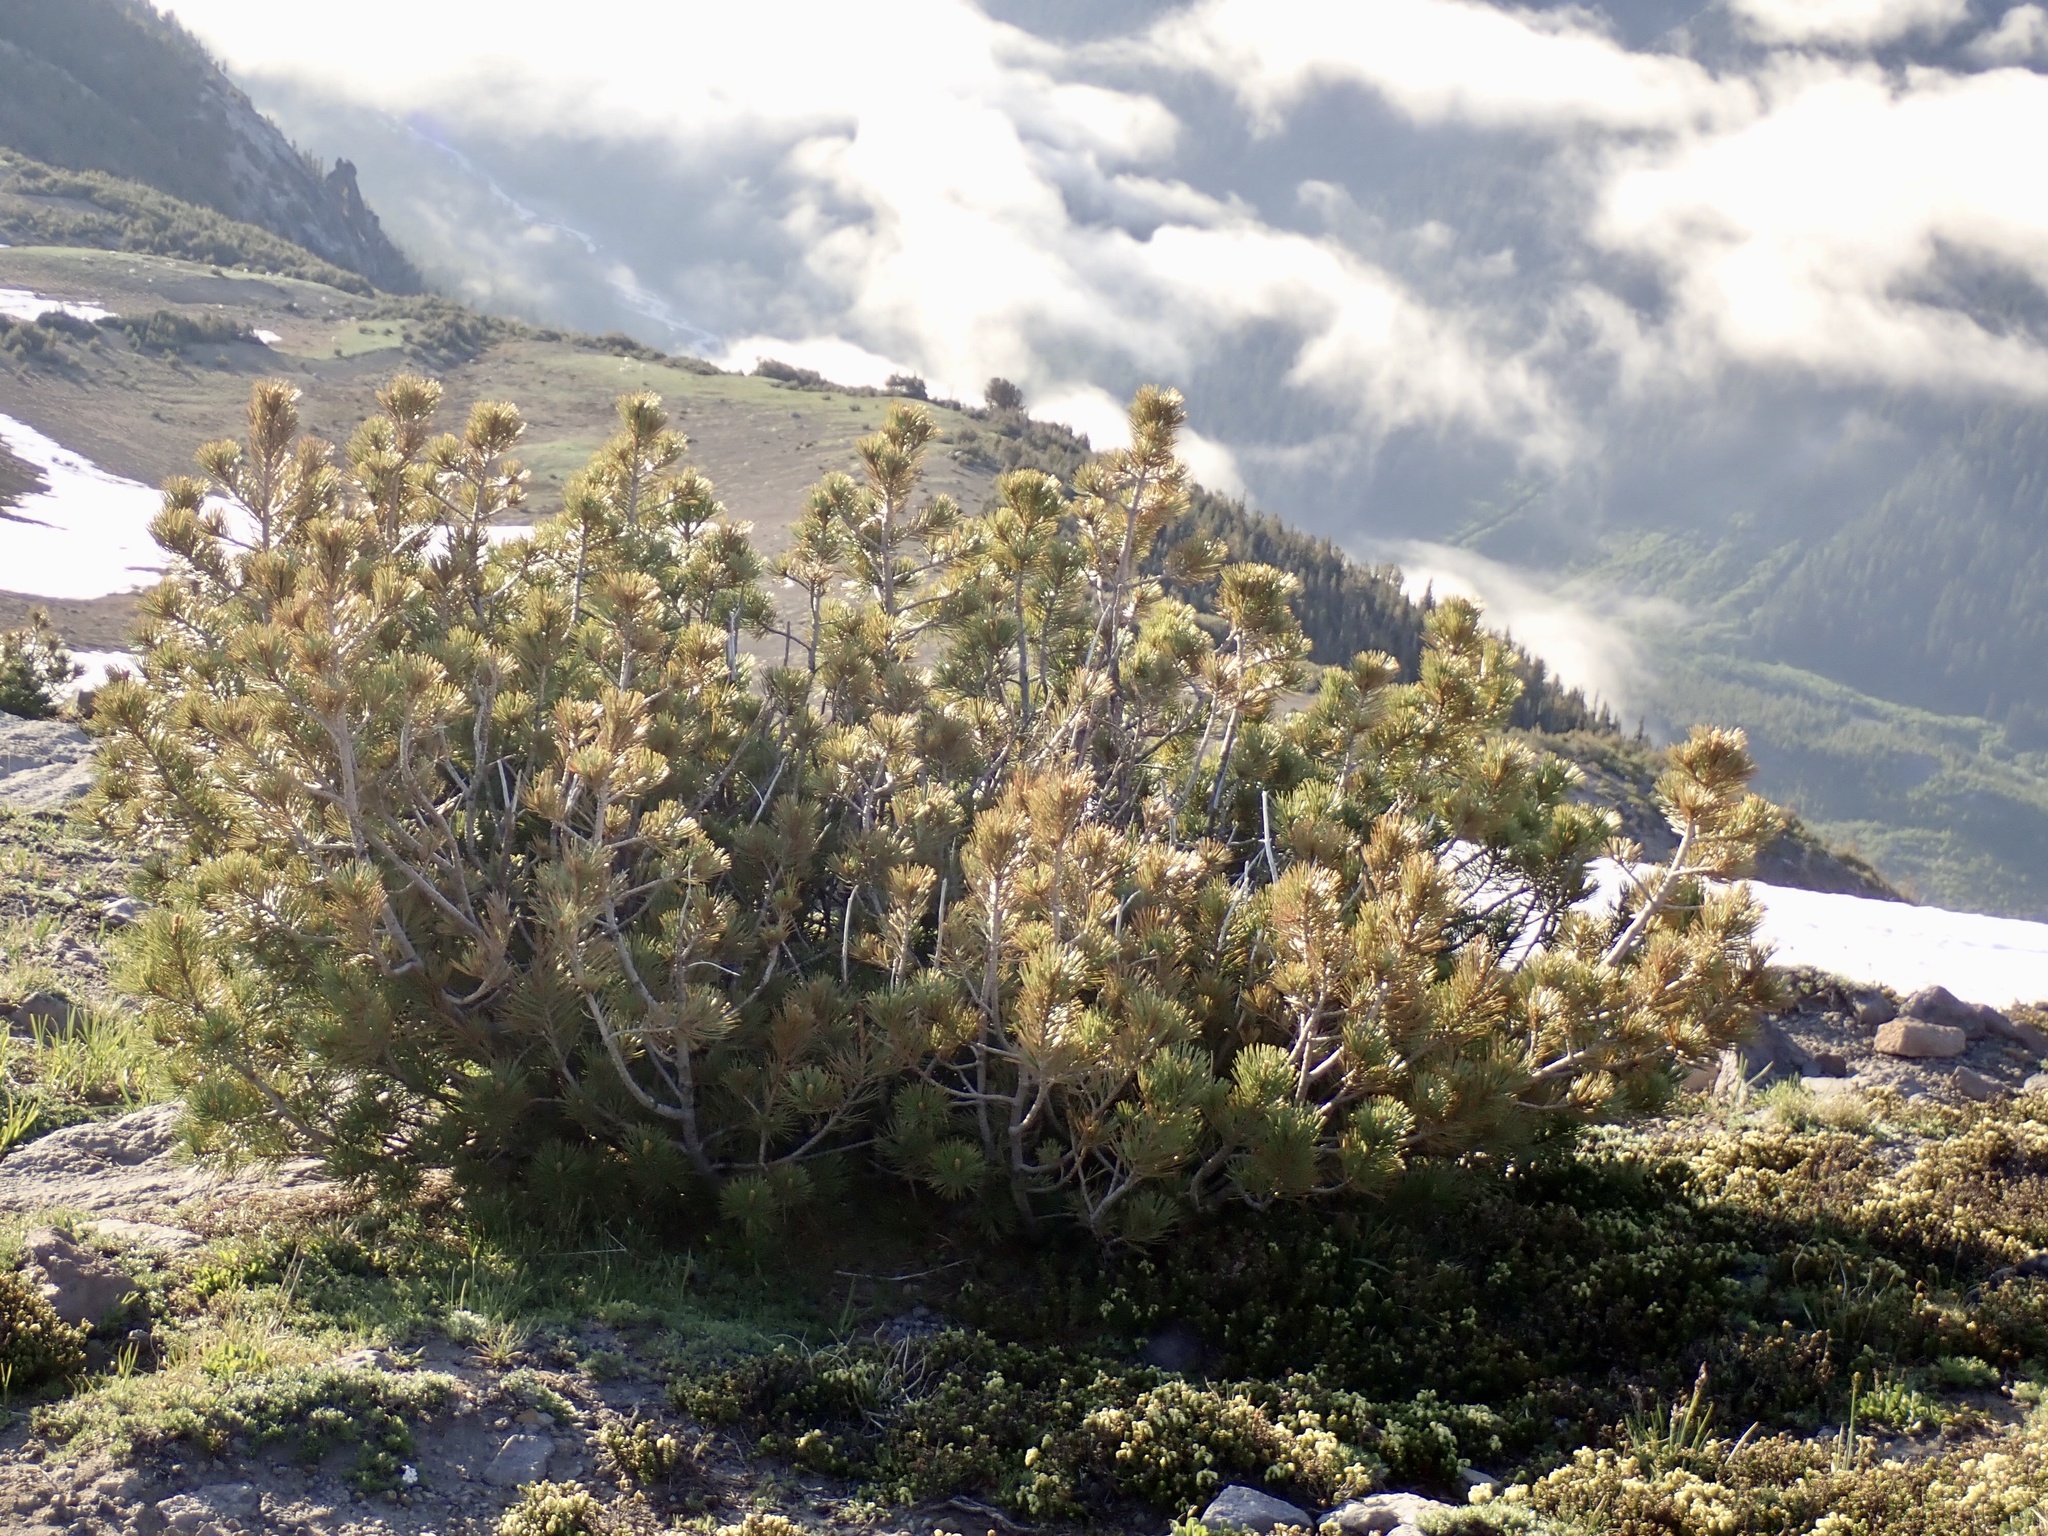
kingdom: Plantae
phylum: Tracheophyta
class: Pinopsida
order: Pinales
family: Pinaceae
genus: Pinus
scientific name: Pinus albicaulis
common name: Whitebark pine
